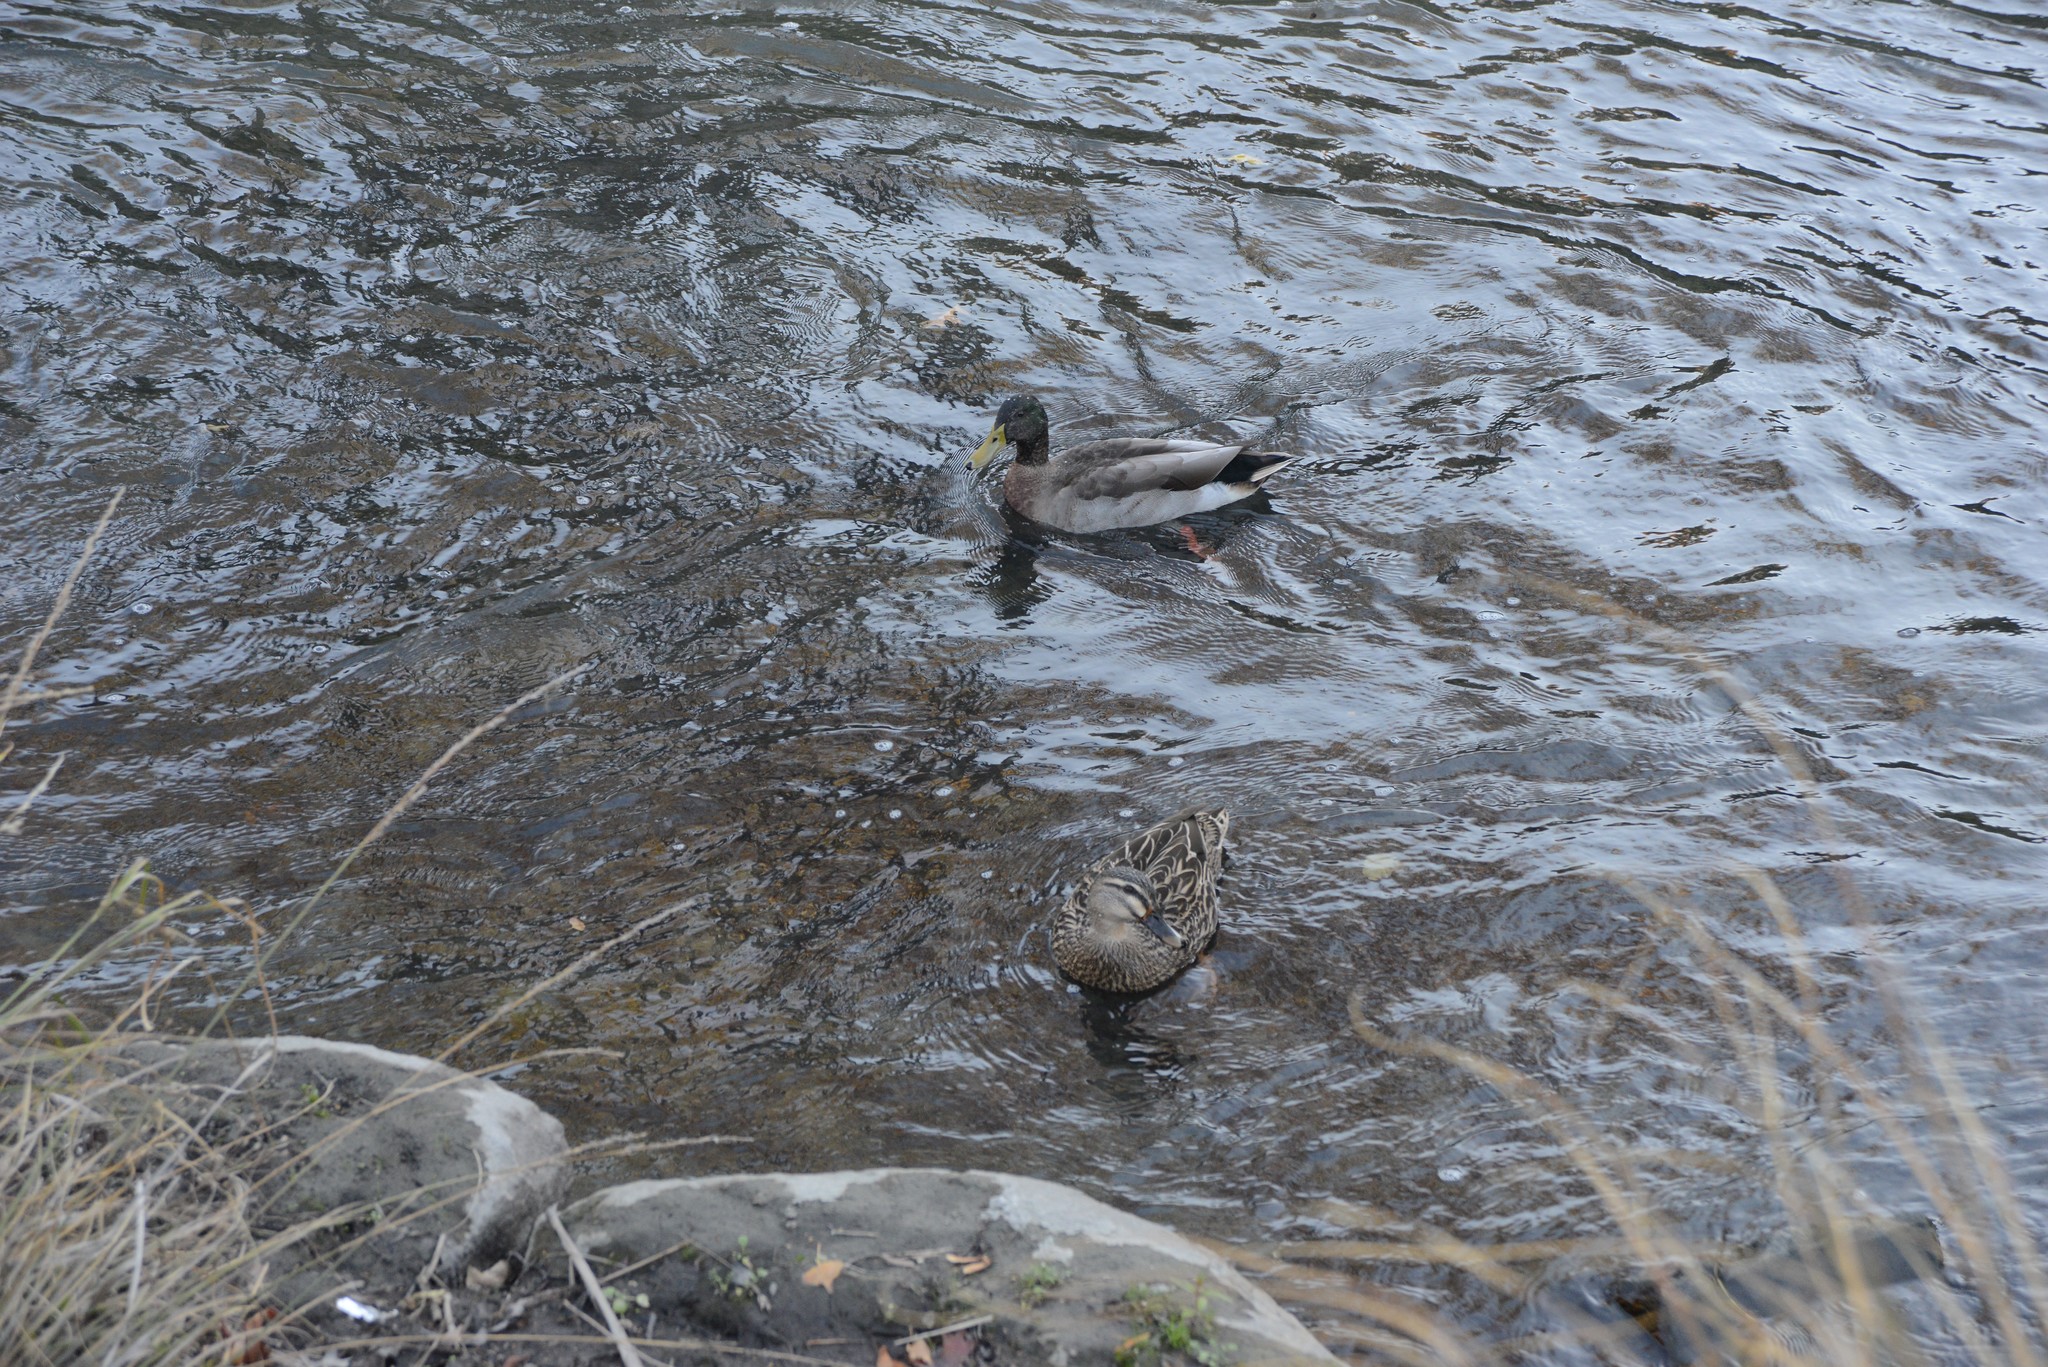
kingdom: Animalia
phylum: Chordata
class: Aves
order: Anseriformes
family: Anatidae
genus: Anas
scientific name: Anas platyrhynchos
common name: Mallard
